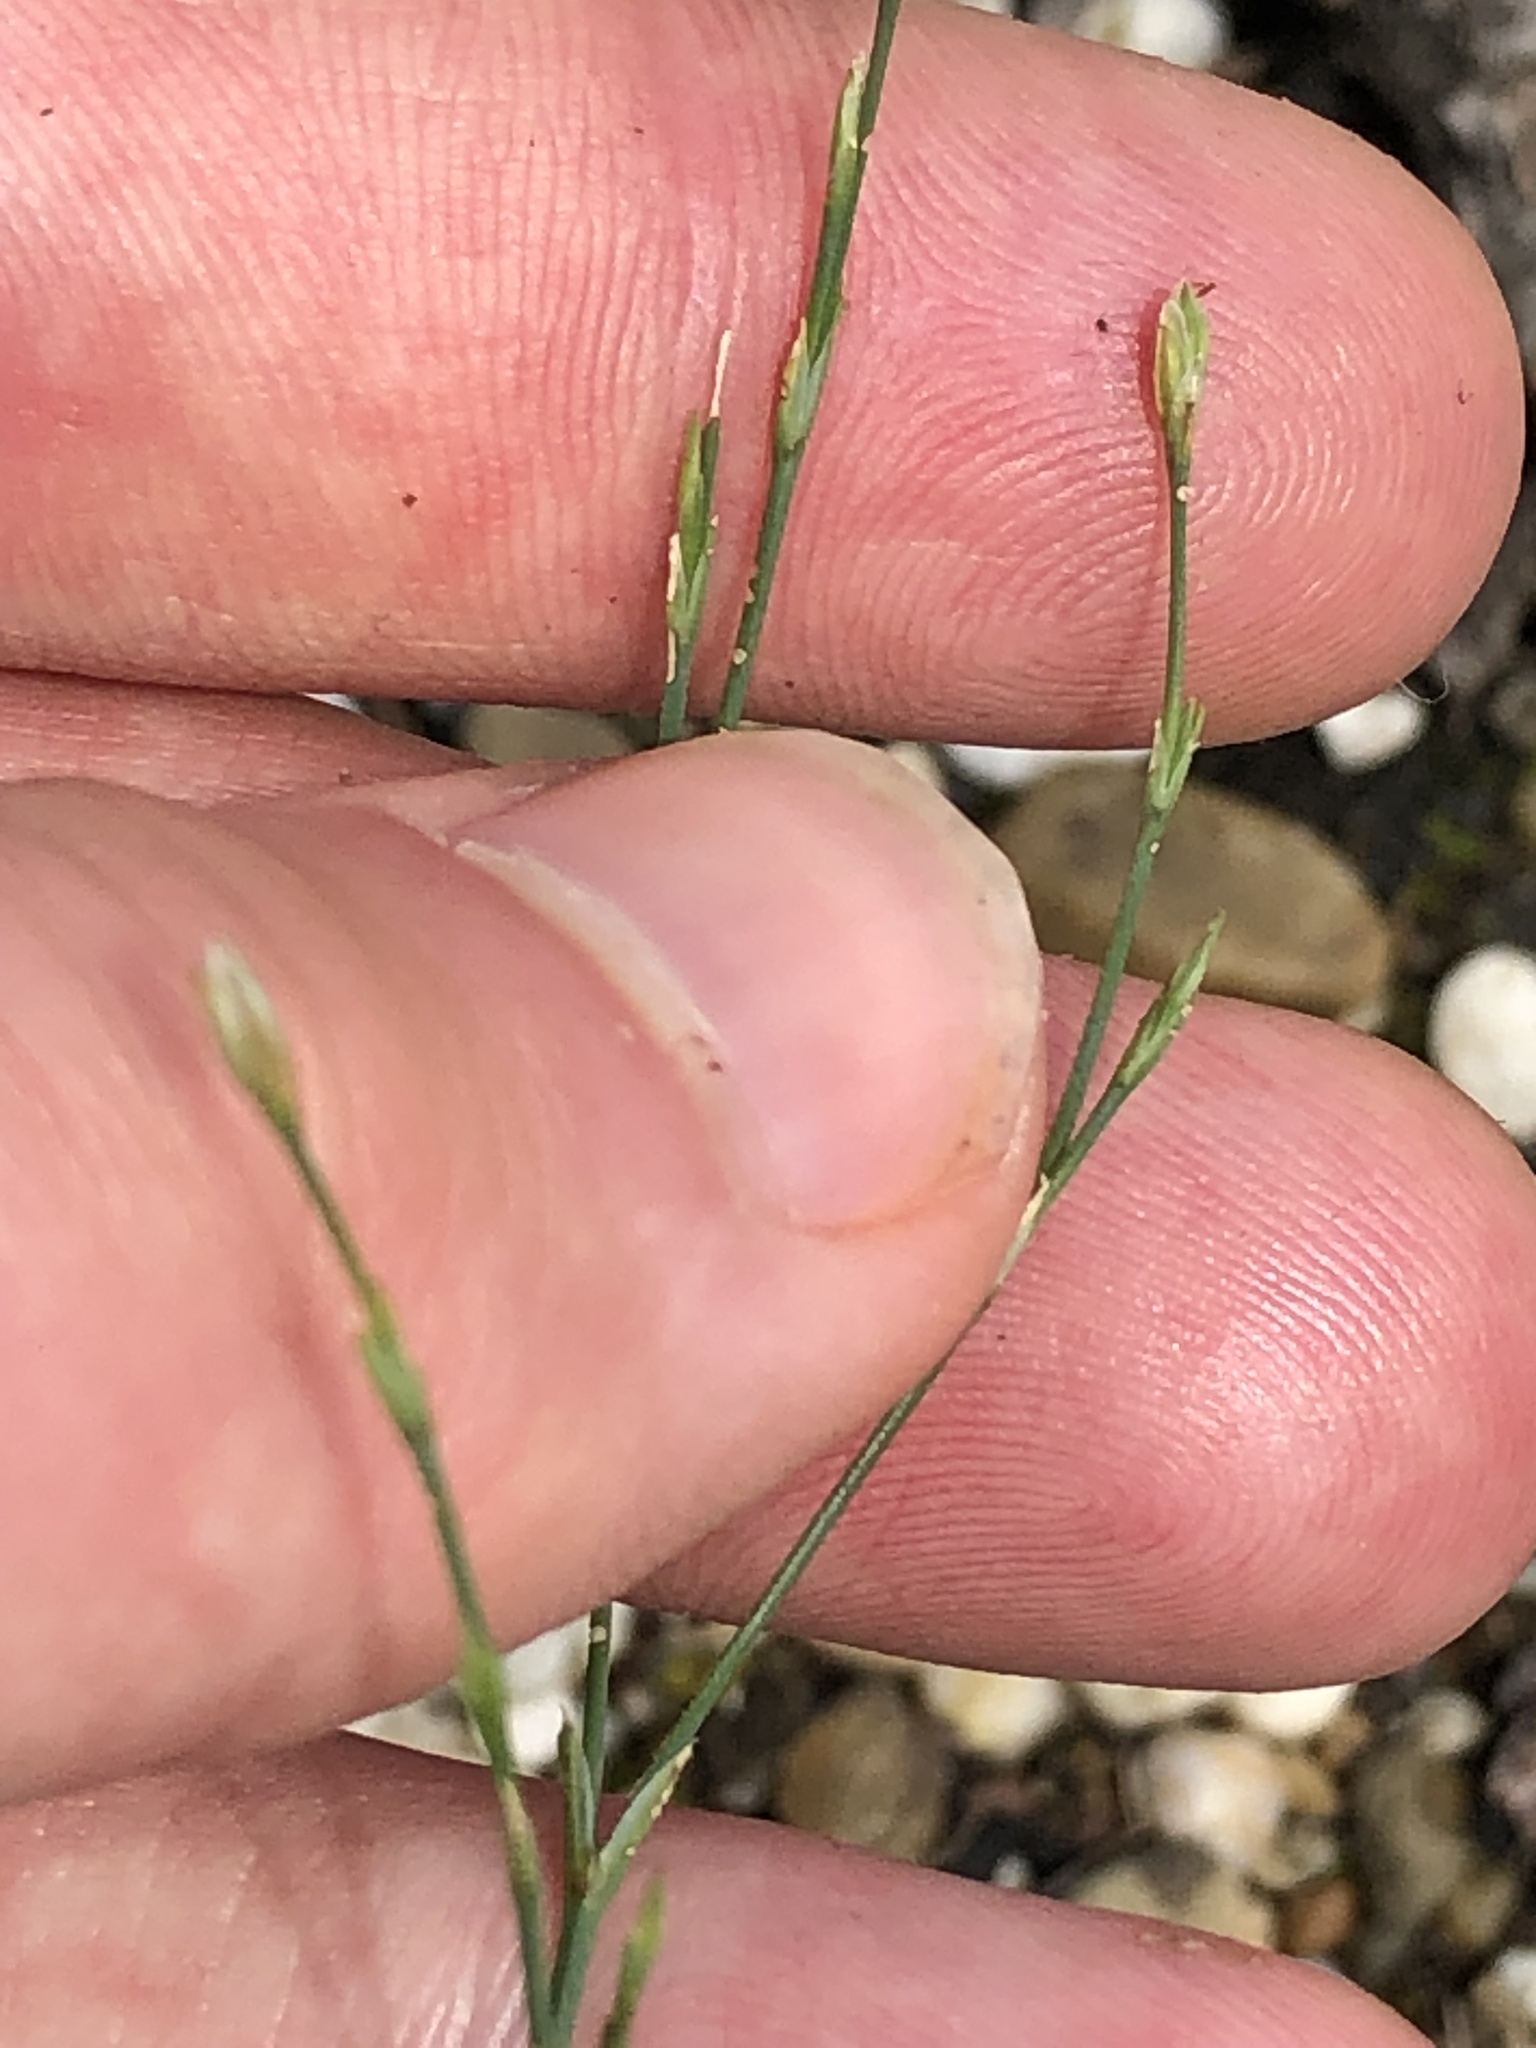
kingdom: Plantae
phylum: Tracheophyta
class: Magnoliopsida
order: Caryophyllales
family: Caryophyllaceae
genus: Petrorhagia
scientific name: Petrorhagia saxifraga
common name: Tunicflower
